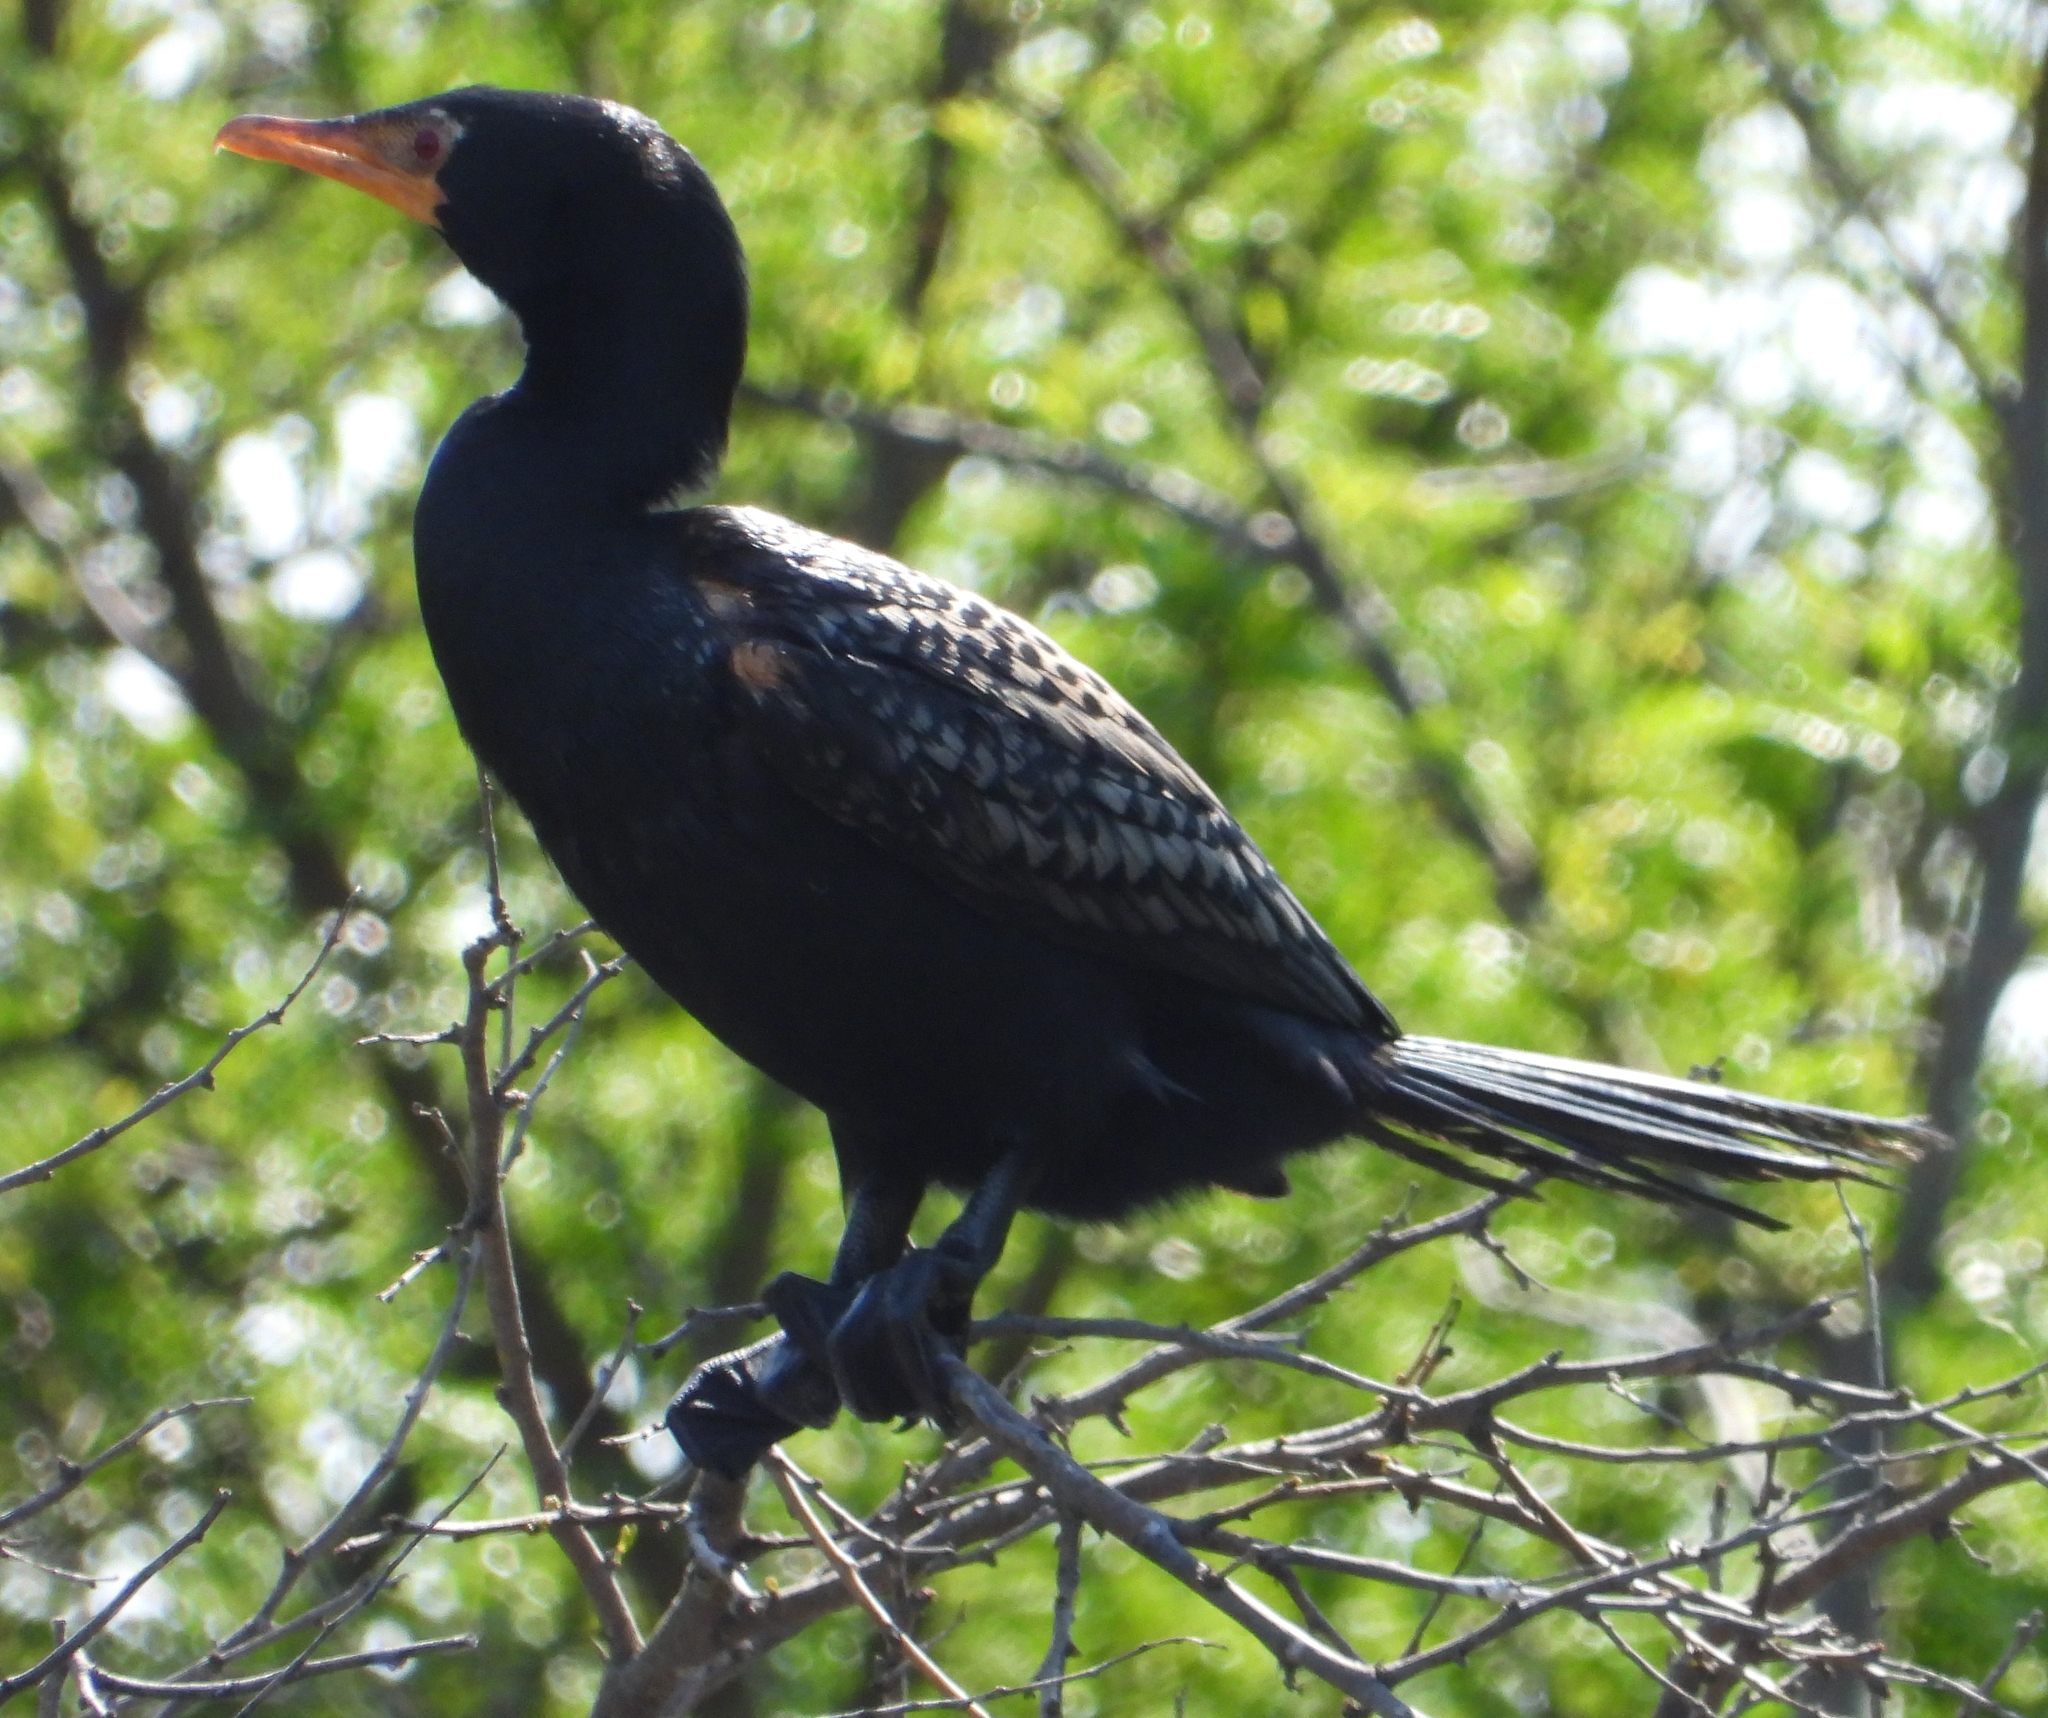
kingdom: Animalia
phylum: Chordata
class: Aves
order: Suliformes
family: Phalacrocoracidae
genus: Microcarbo
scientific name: Microcarbo africanus
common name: Long-tailed cormorant
